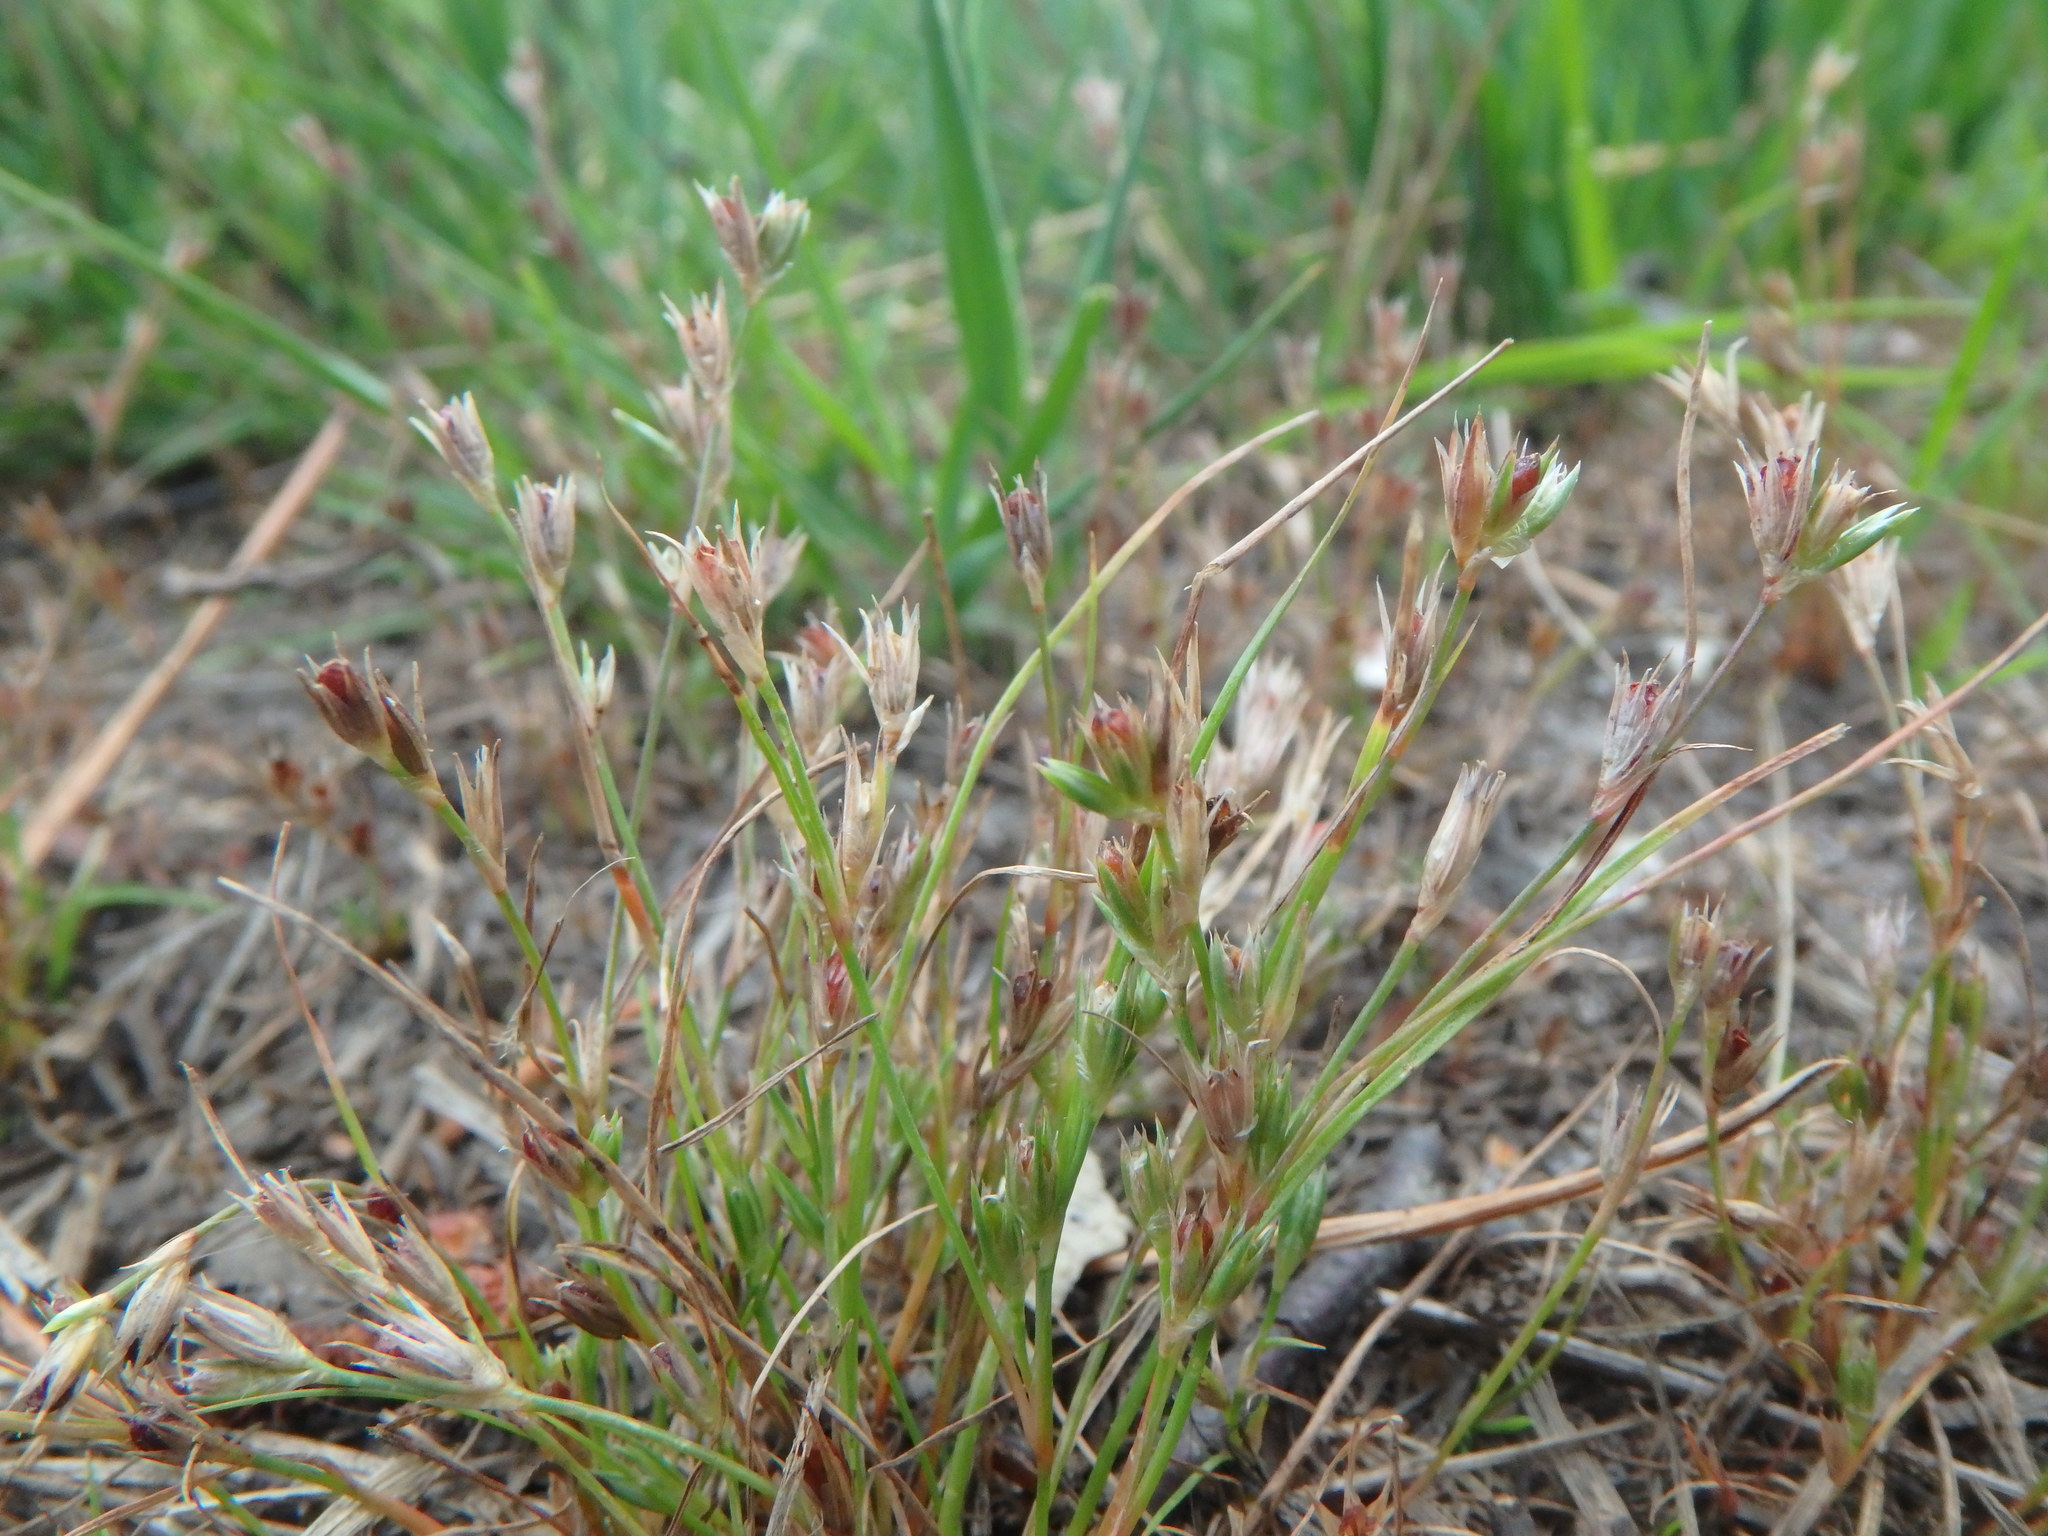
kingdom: Plantae
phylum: Tracheophyta
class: Liliopsida
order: Poales
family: Juncaceae
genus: Juncus
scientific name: Juncus bufonius
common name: Toad rush
